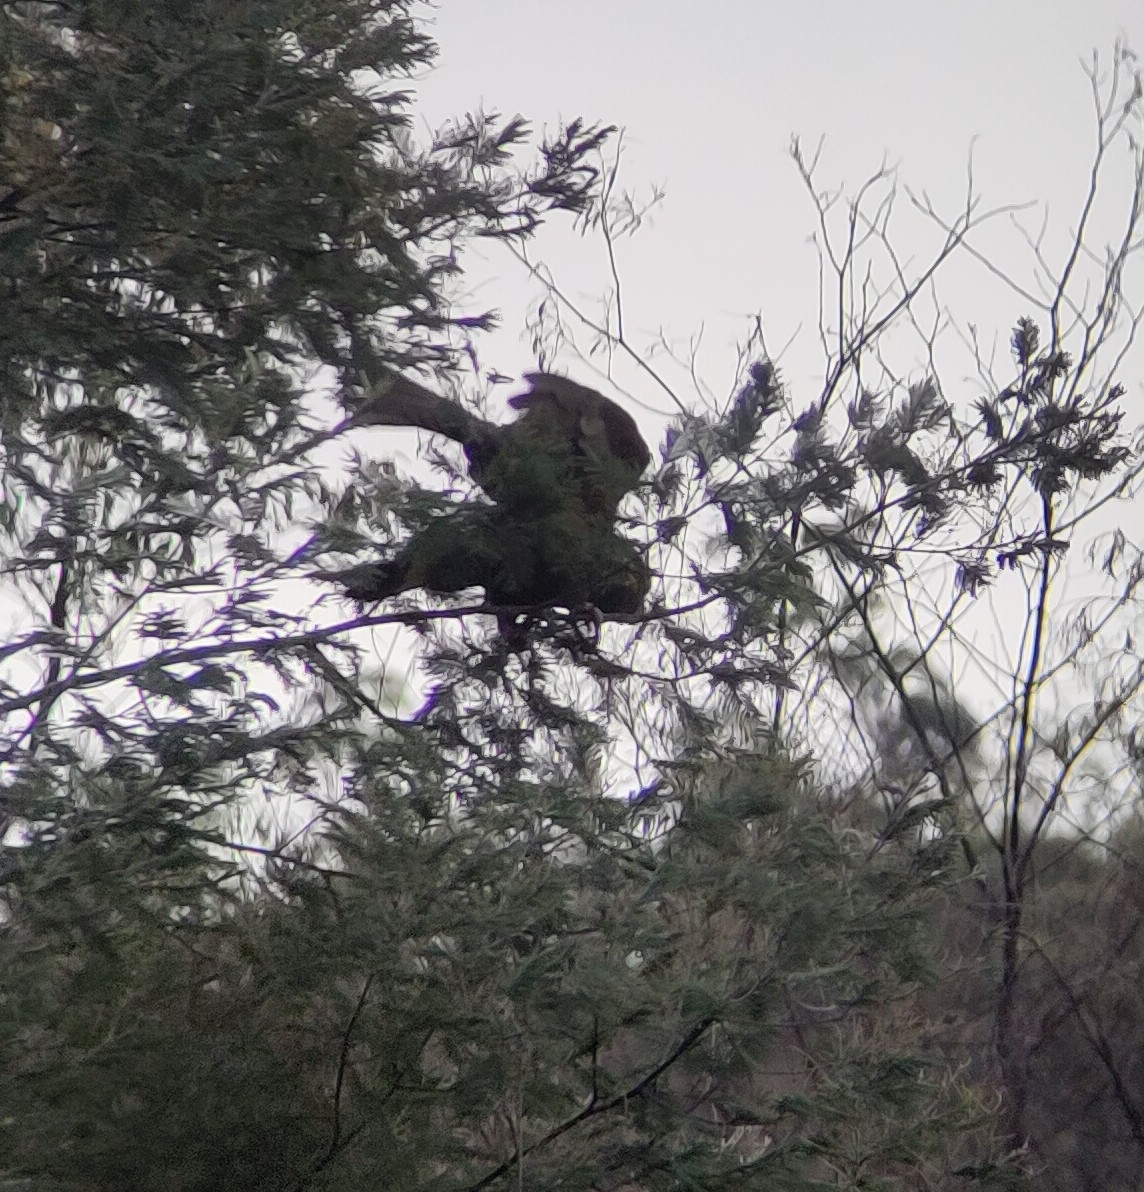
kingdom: Animalia
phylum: Chordata
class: Aves
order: Psittaciformes
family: Cacatuidae
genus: Zanda
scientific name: Zanda funerea
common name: Yellow-tailed black-cockatoo
